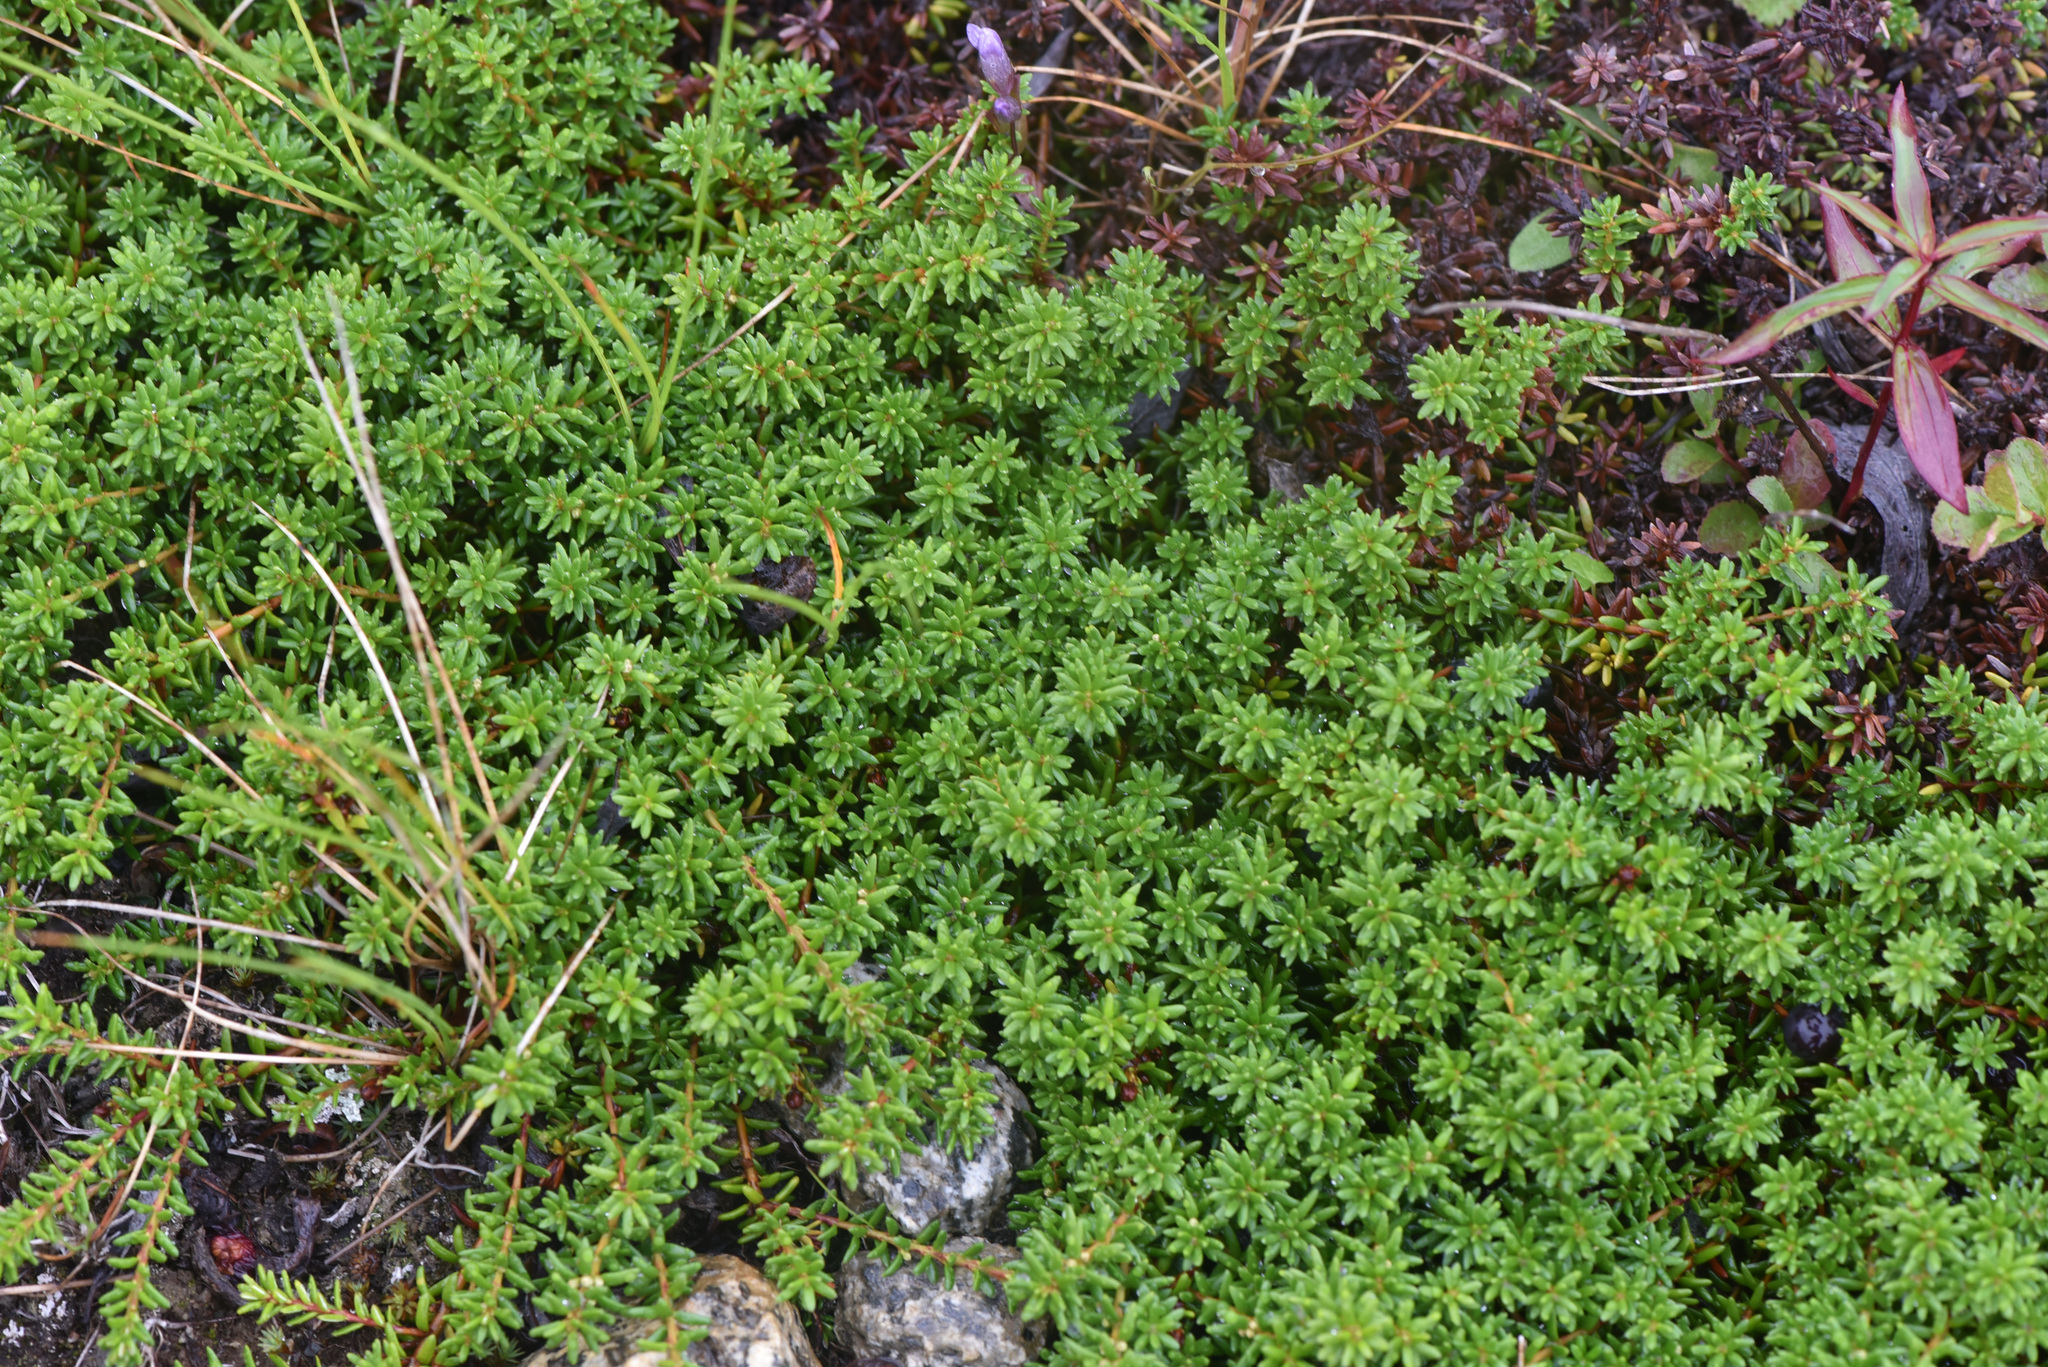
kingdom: Plantae
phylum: Tracheophyta
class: Magnoliopsida
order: Ericales
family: Ericaceae
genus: Empetrum
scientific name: Empetrum nigrum
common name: Black crowberry
